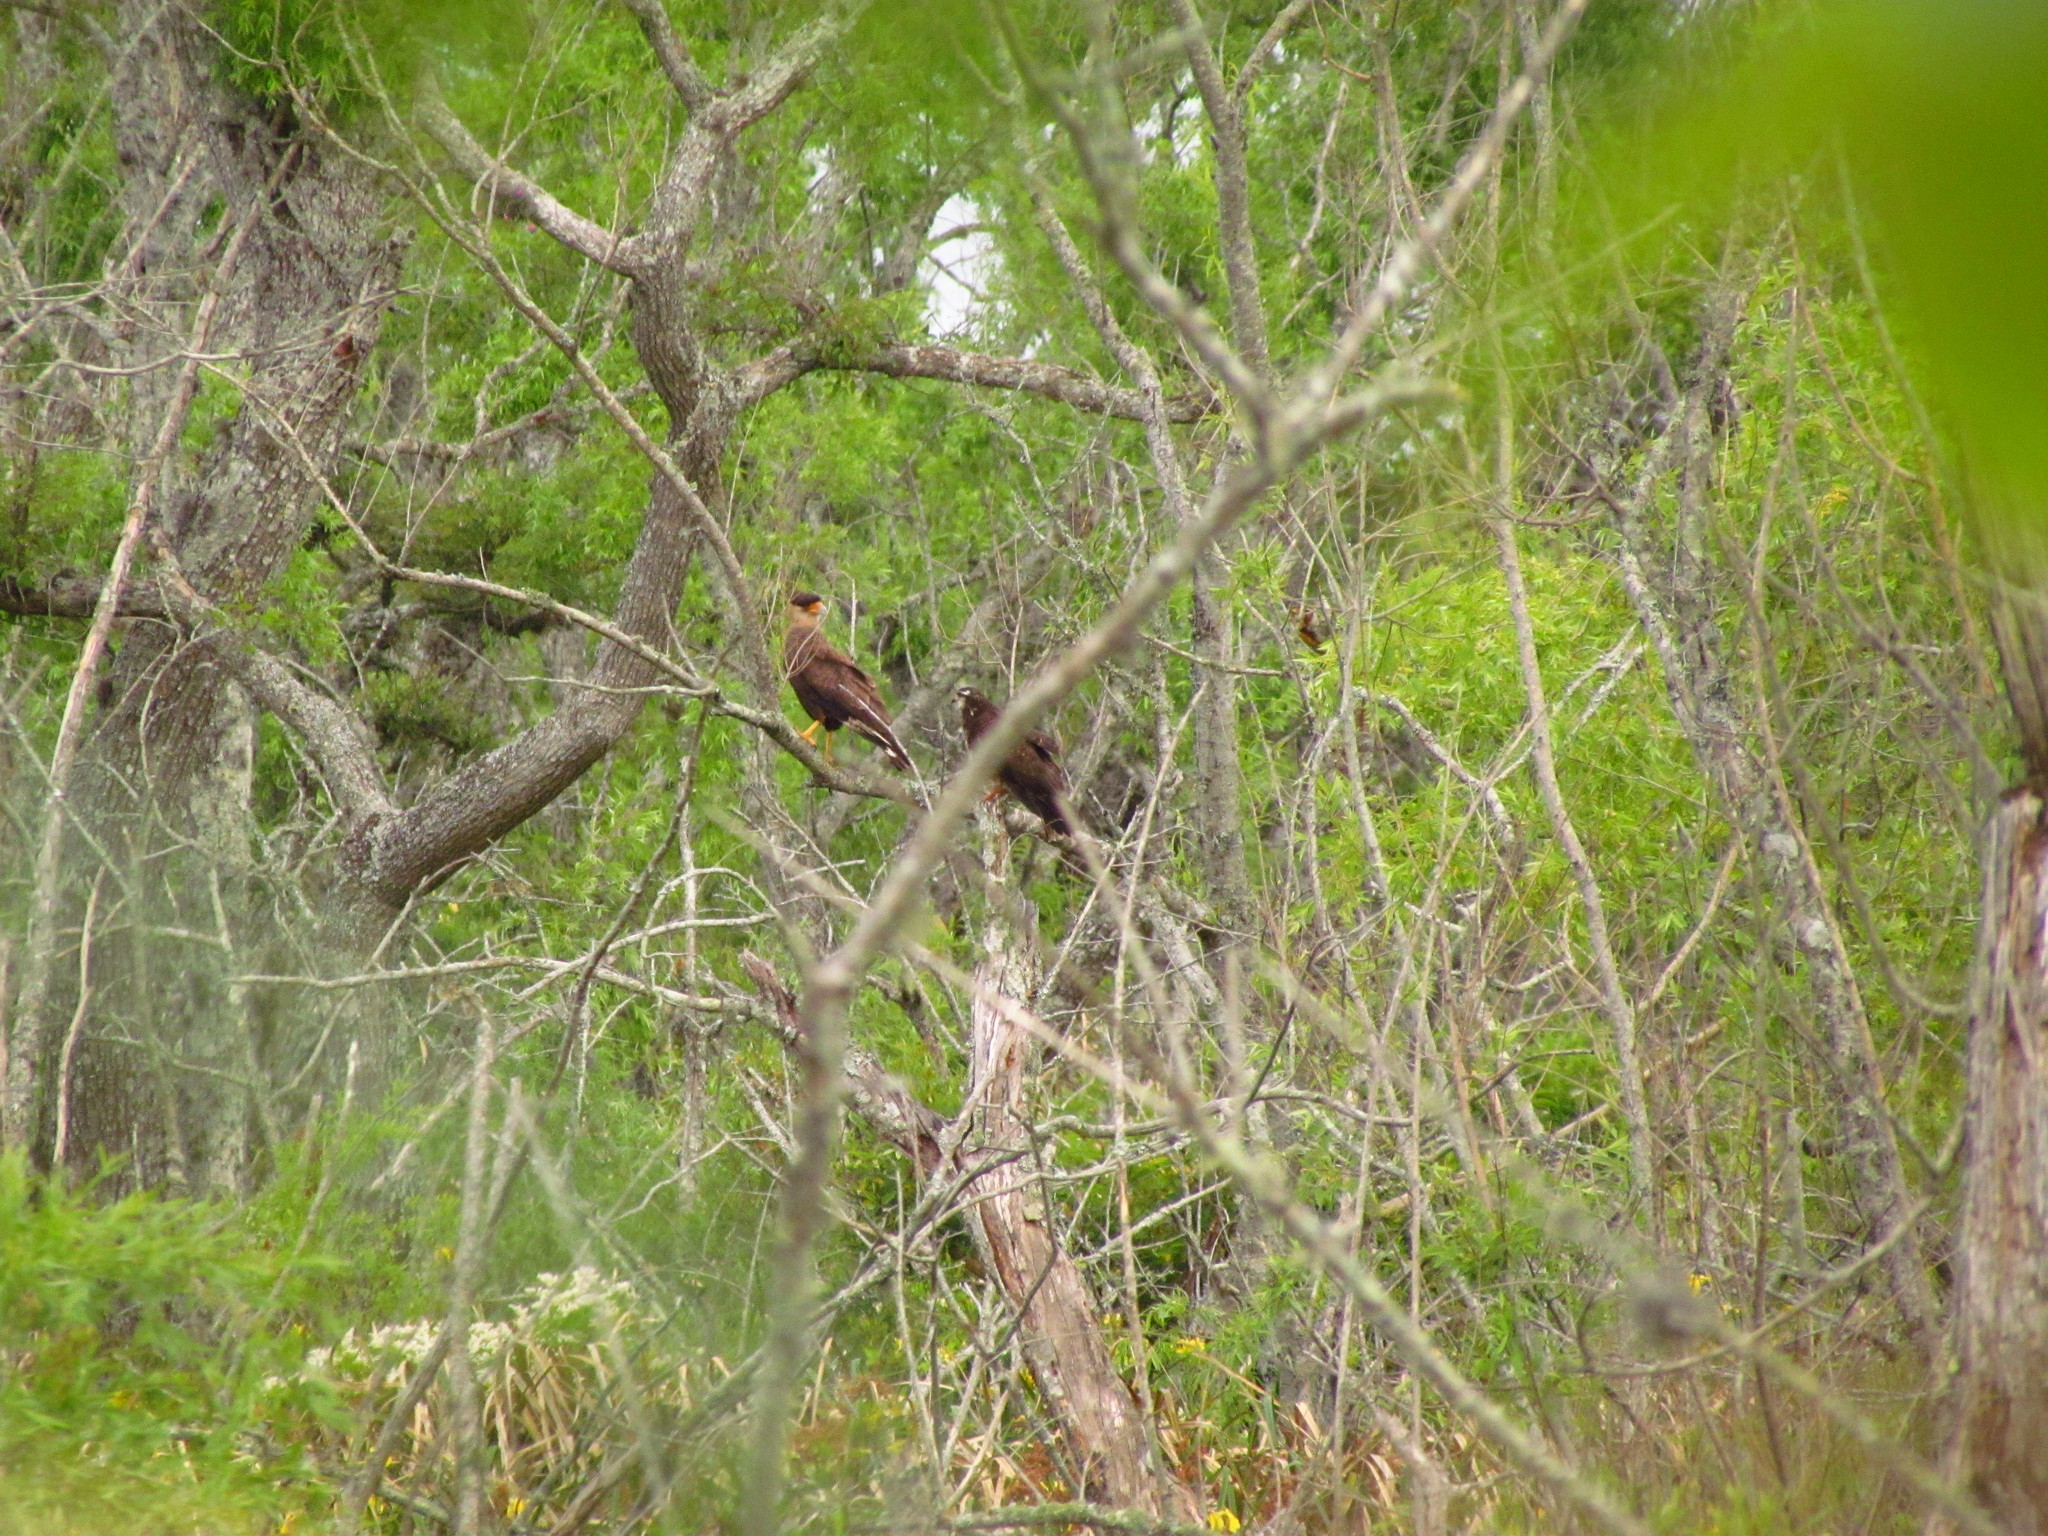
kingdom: Animalia
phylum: Chordata
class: Aves
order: Falconiformes
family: Falconidae
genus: Caracara
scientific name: Caracara plancus
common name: Southern caracara
